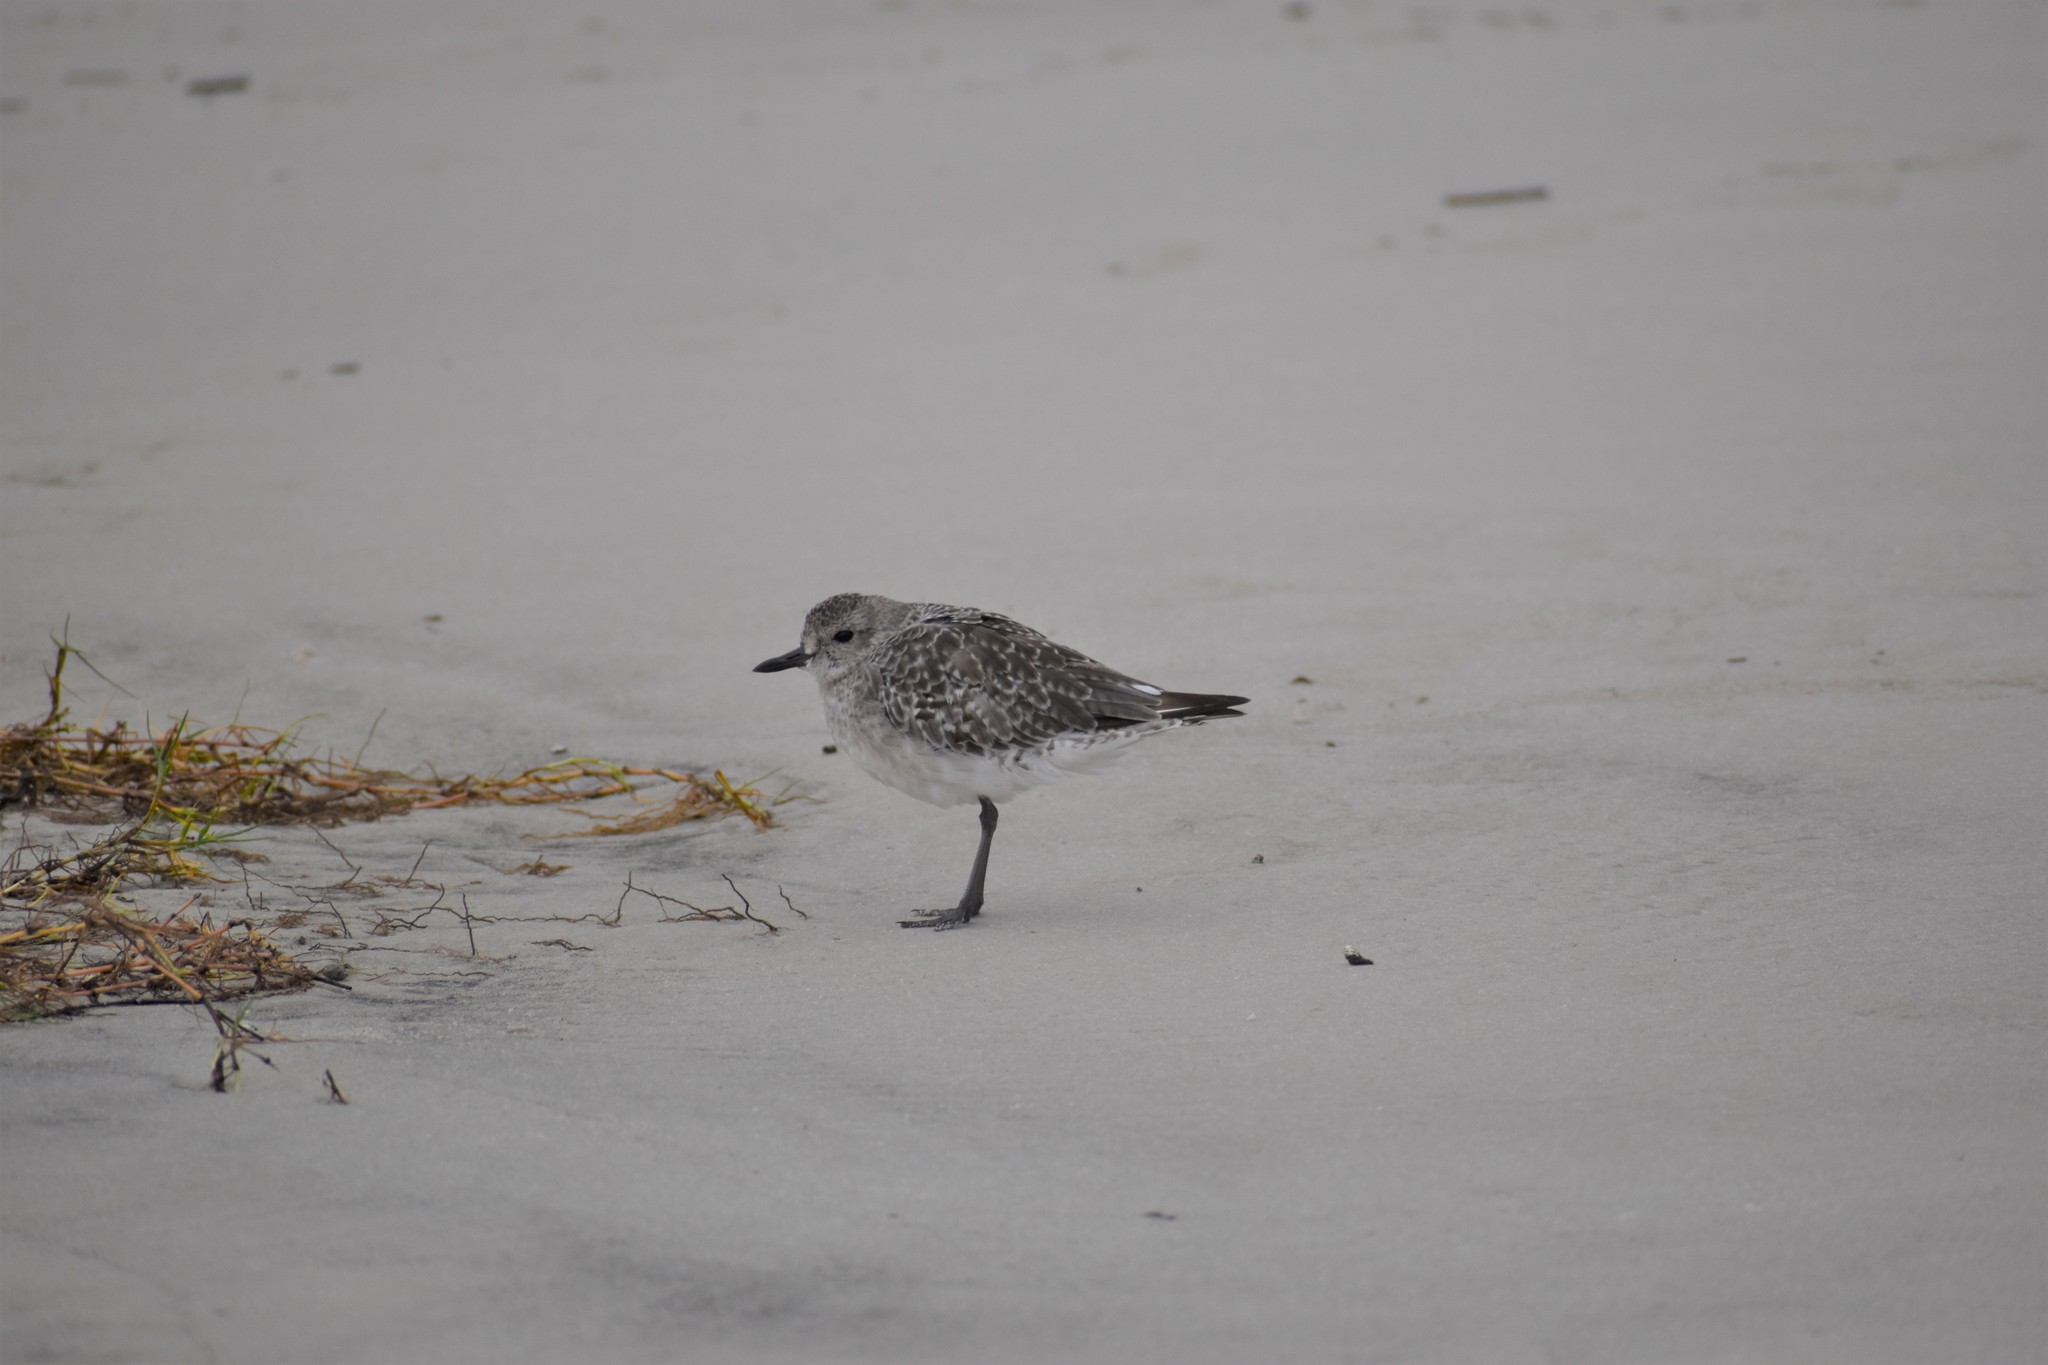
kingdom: Animalia
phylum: Chordata
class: Aves
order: Charadriiformes
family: Charadriidae
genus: Pluvialis
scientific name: Pluvialis squatarola
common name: Grey plover
